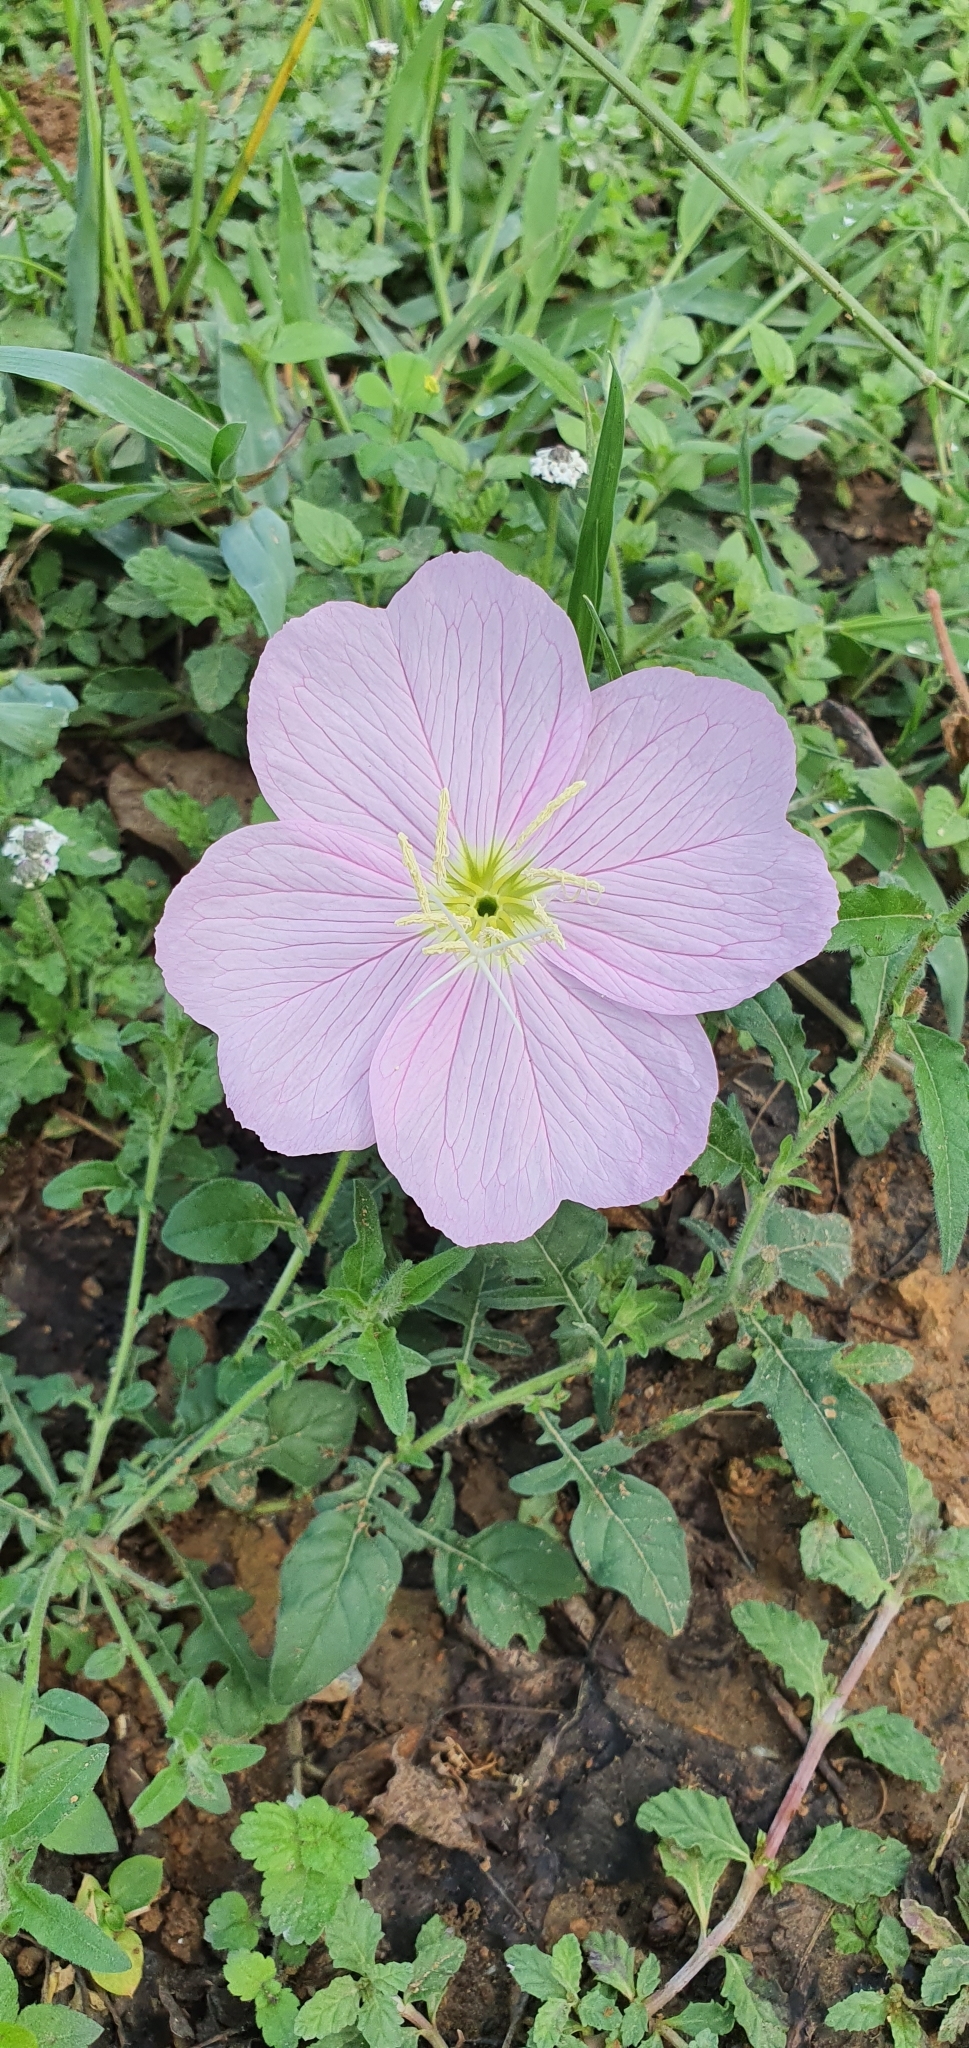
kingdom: Plantae
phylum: Tracheophyta
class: Magnoliopsida
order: Myrtales
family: Onagraceae
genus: Oenothera
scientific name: Oenothera speciosa
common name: White evening-primrose
